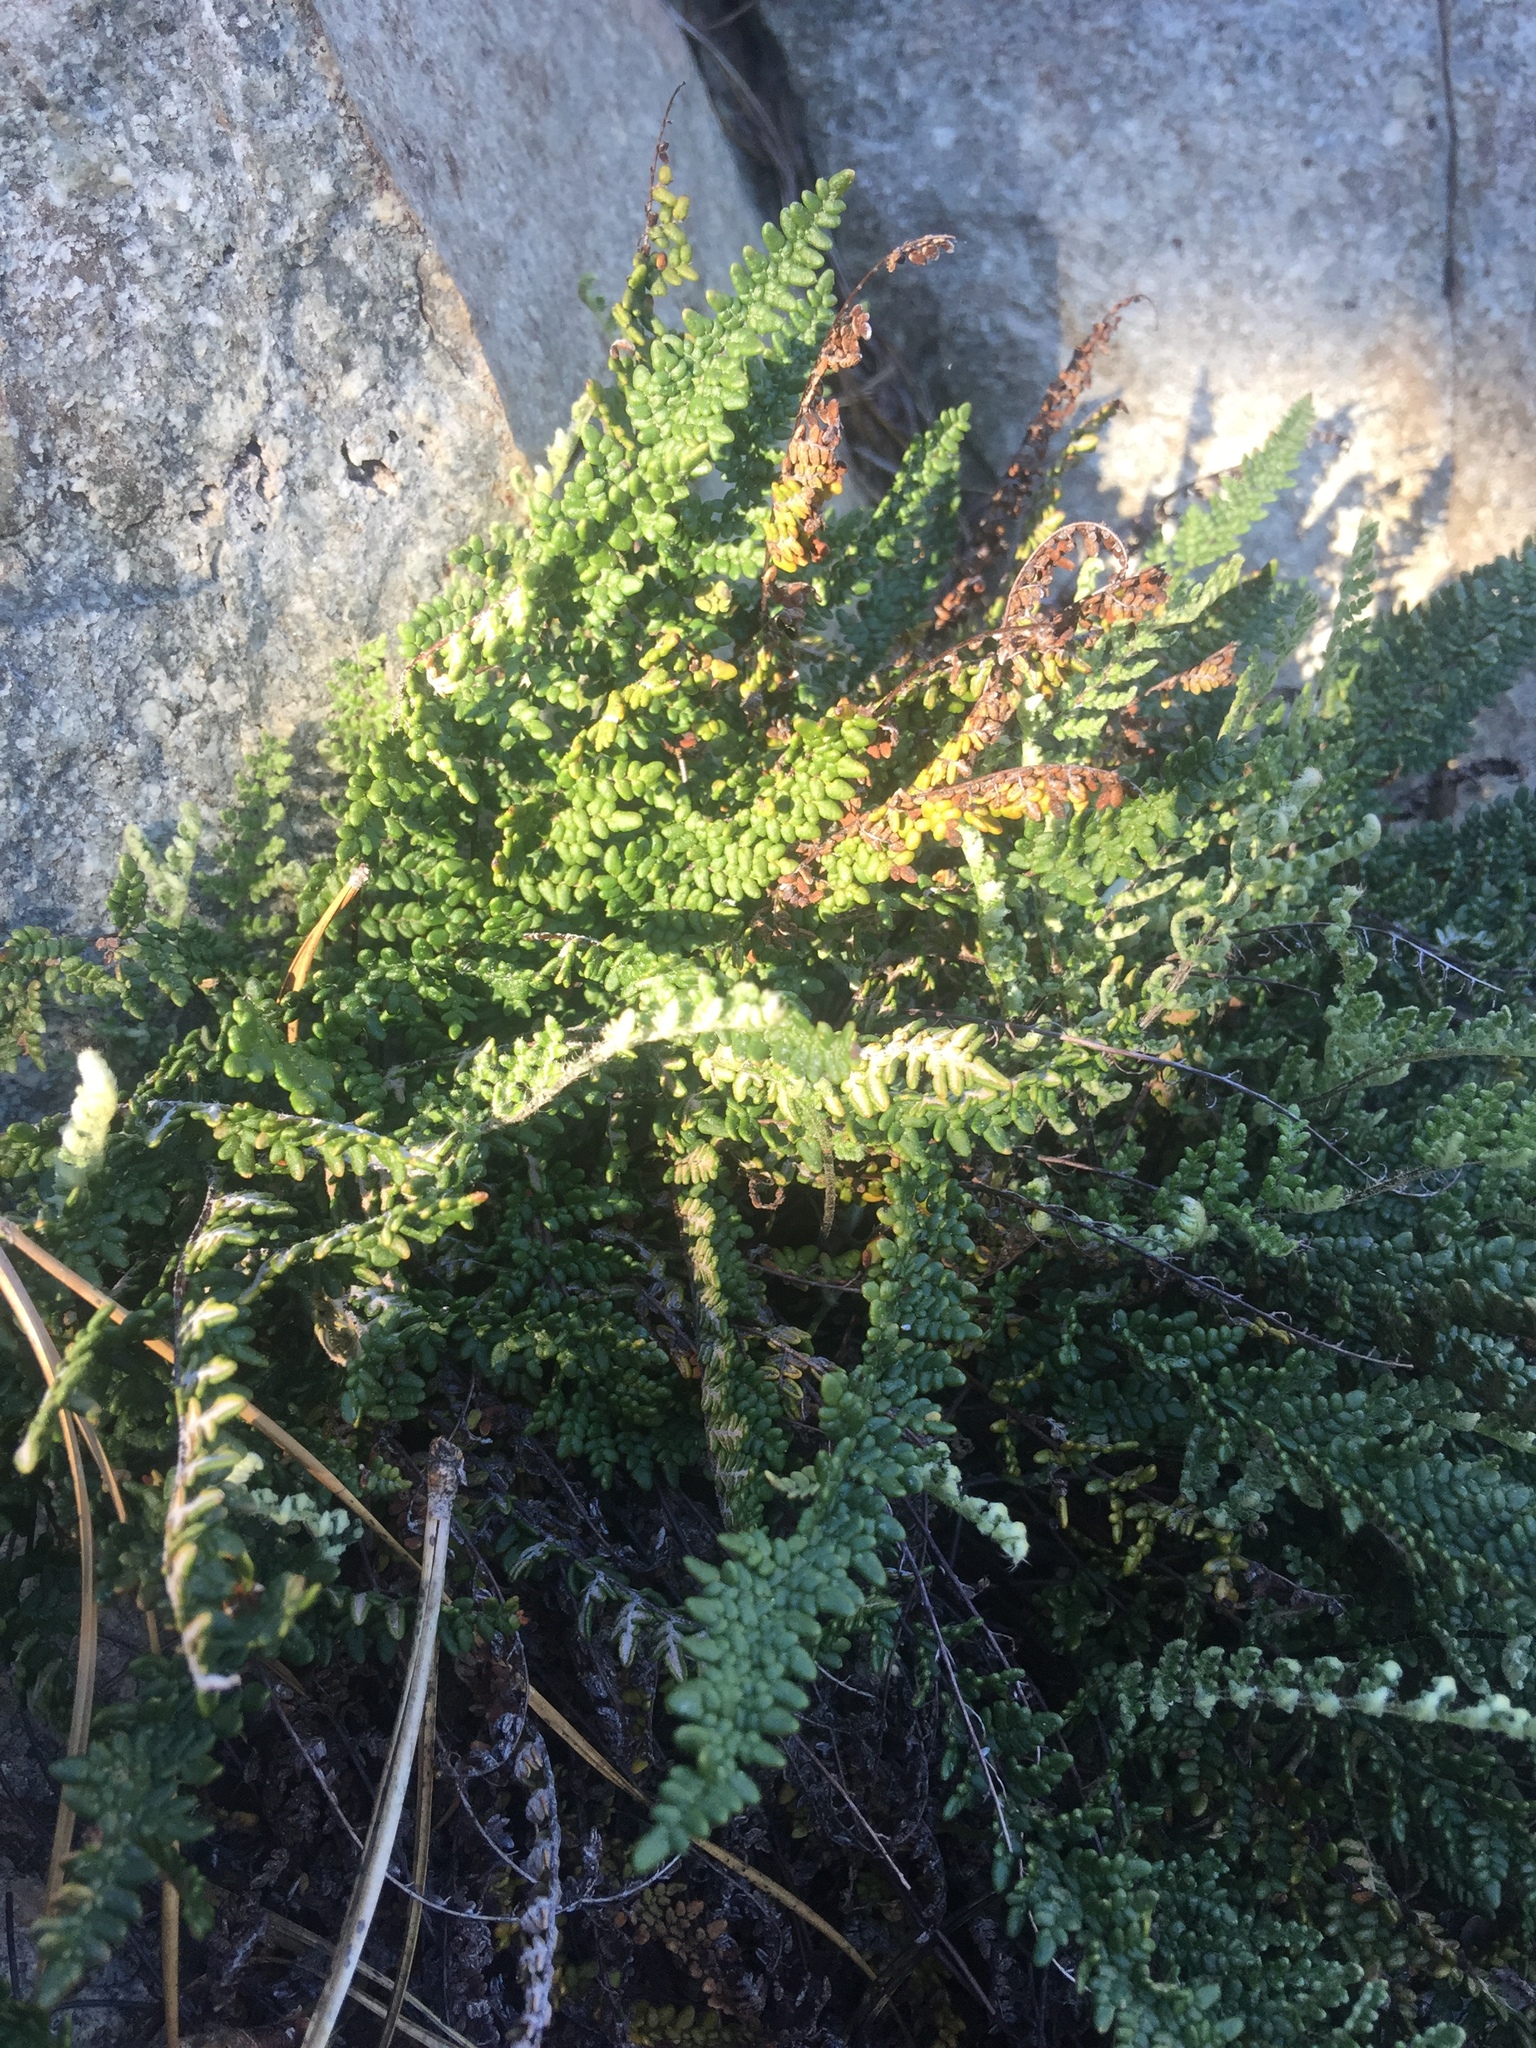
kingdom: Plantae
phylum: Tracheophyta
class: Polypodiopsida
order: Polypodiales
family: Pteridaceae
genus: Myriopteris
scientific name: Myriopteris gracillima
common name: Lace fern
